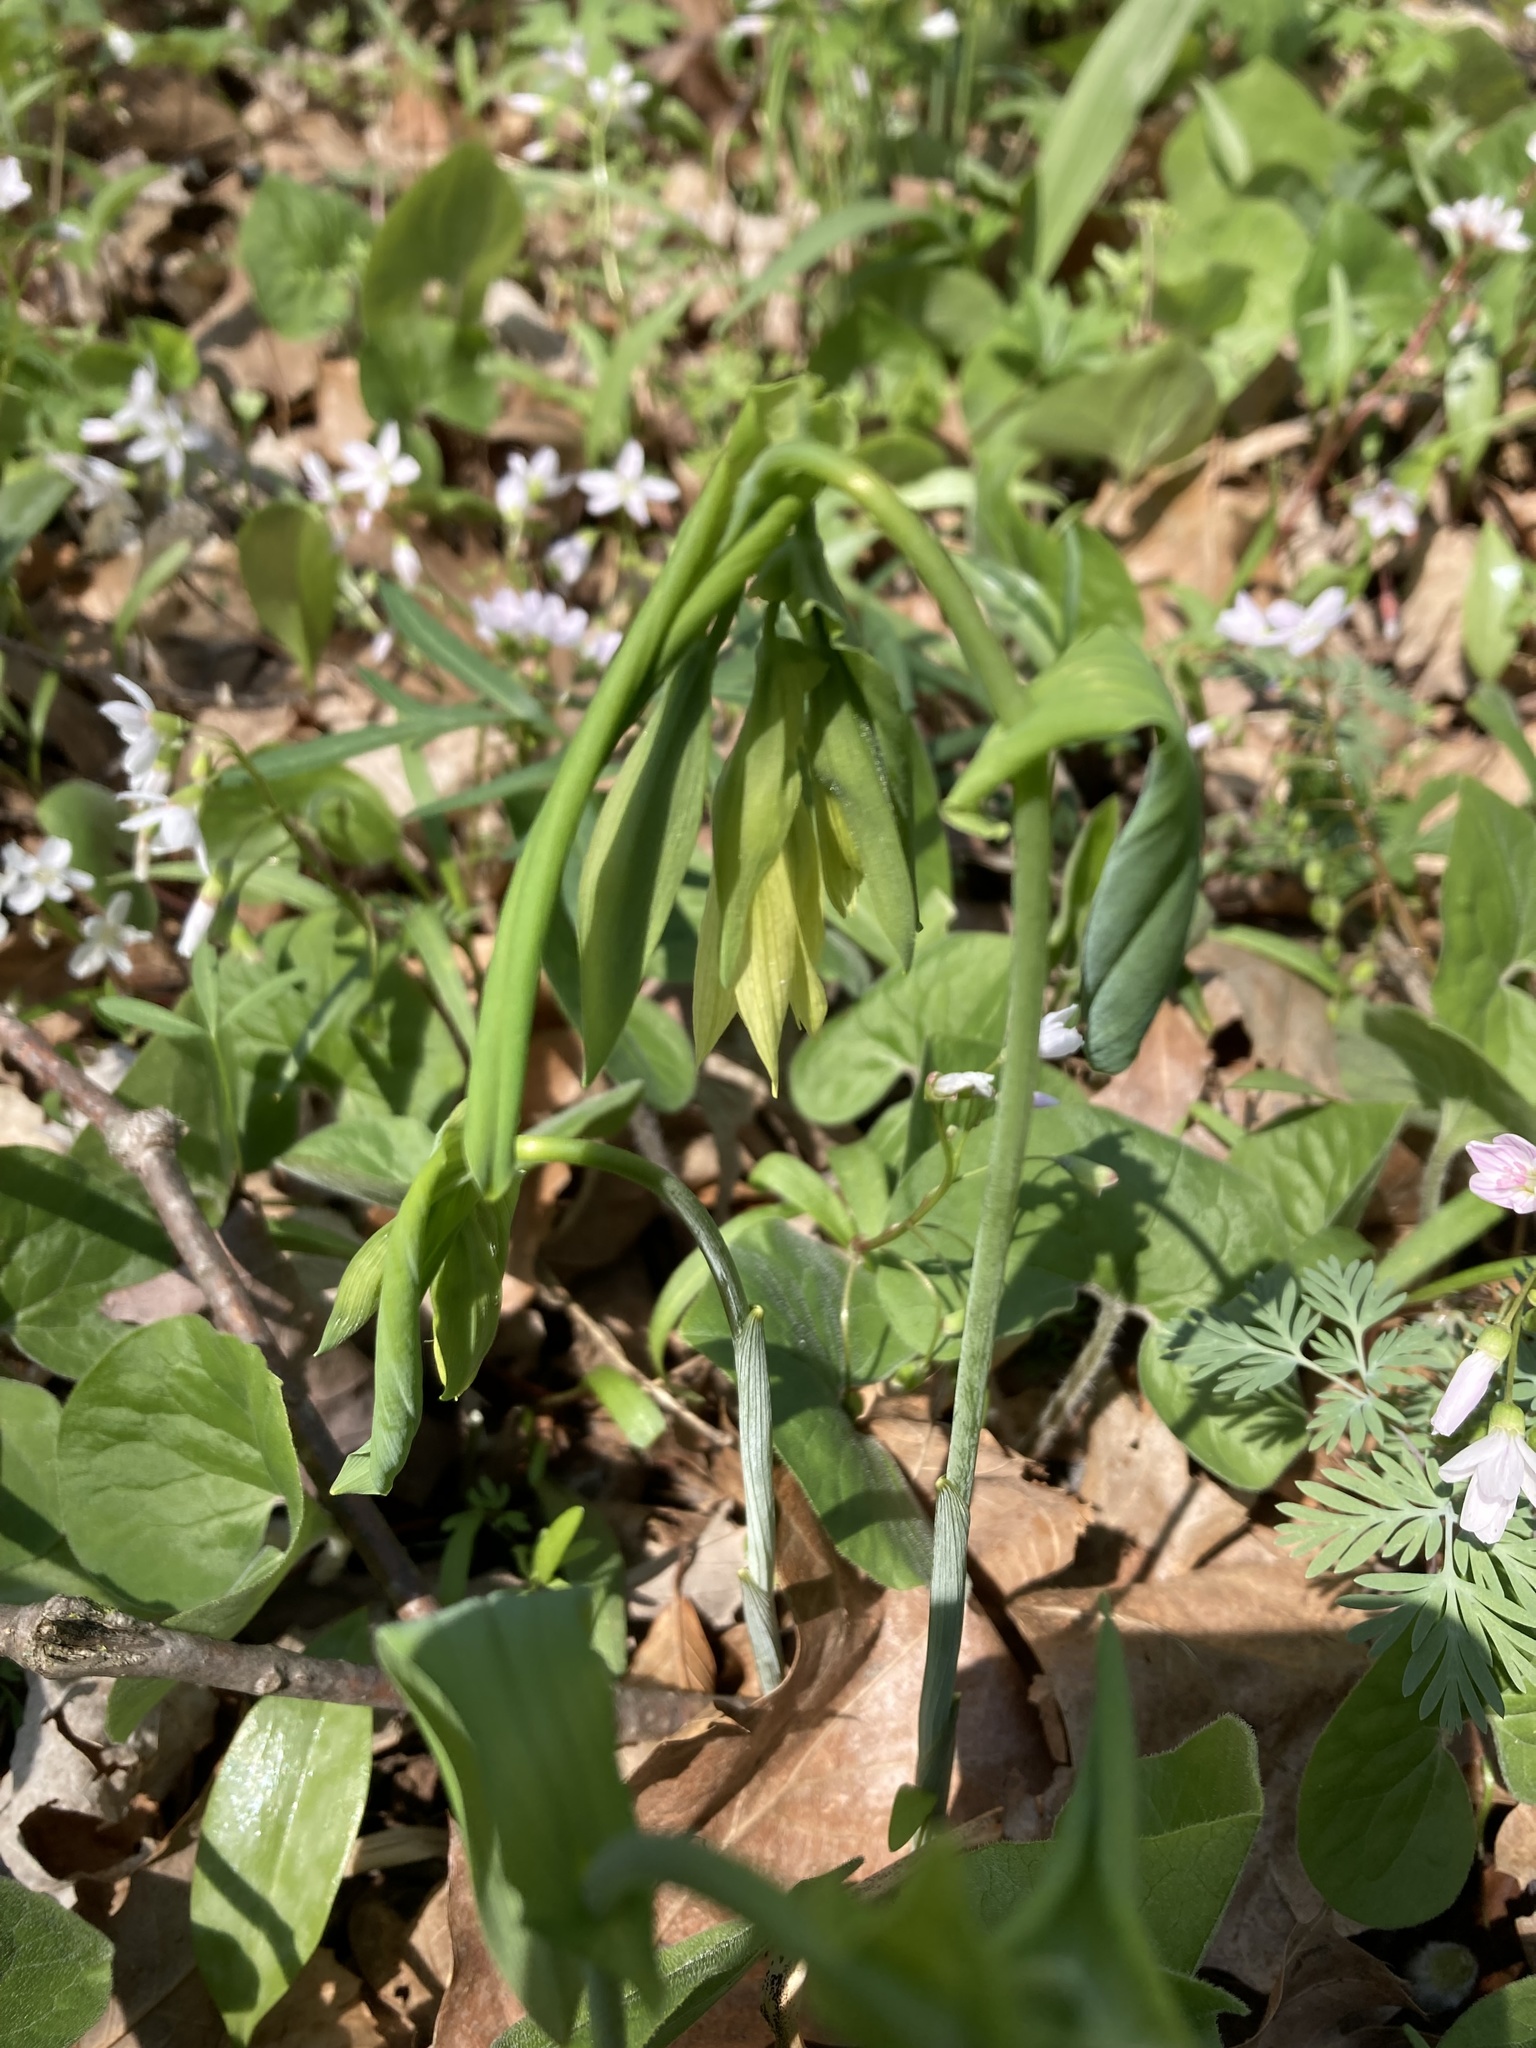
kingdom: Plantae
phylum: Tracheophyta
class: Liliopsida
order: Liliales
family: Colchicaceae
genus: Uvularia
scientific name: Uvularia grandiflora
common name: Bellwort
